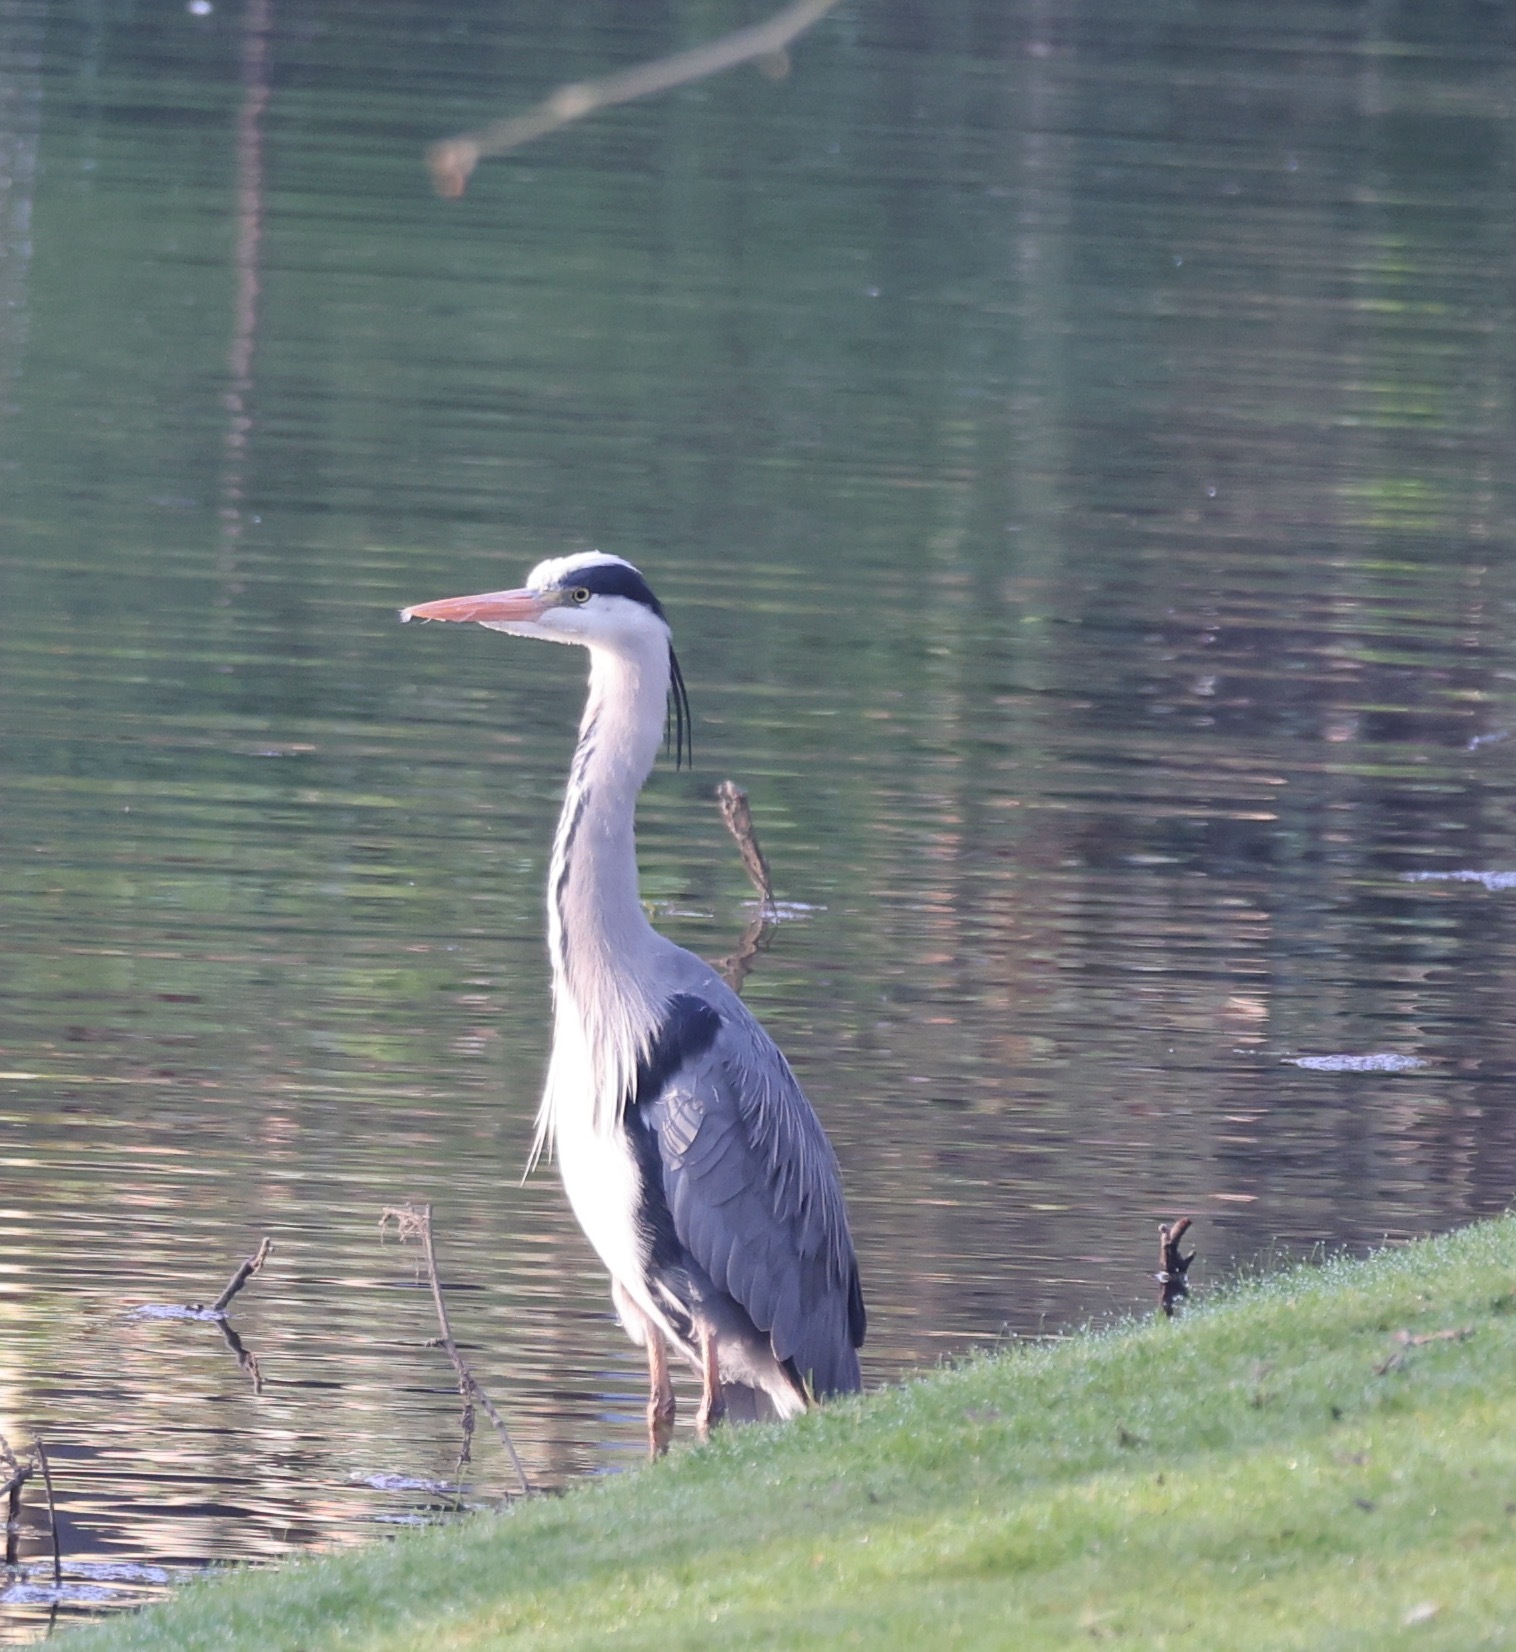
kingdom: Animalia
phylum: Chordata
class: Aves
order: Pelecaniformes
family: Ardeidae
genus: Ardea
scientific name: Ardea cinerea
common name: Grey heron
